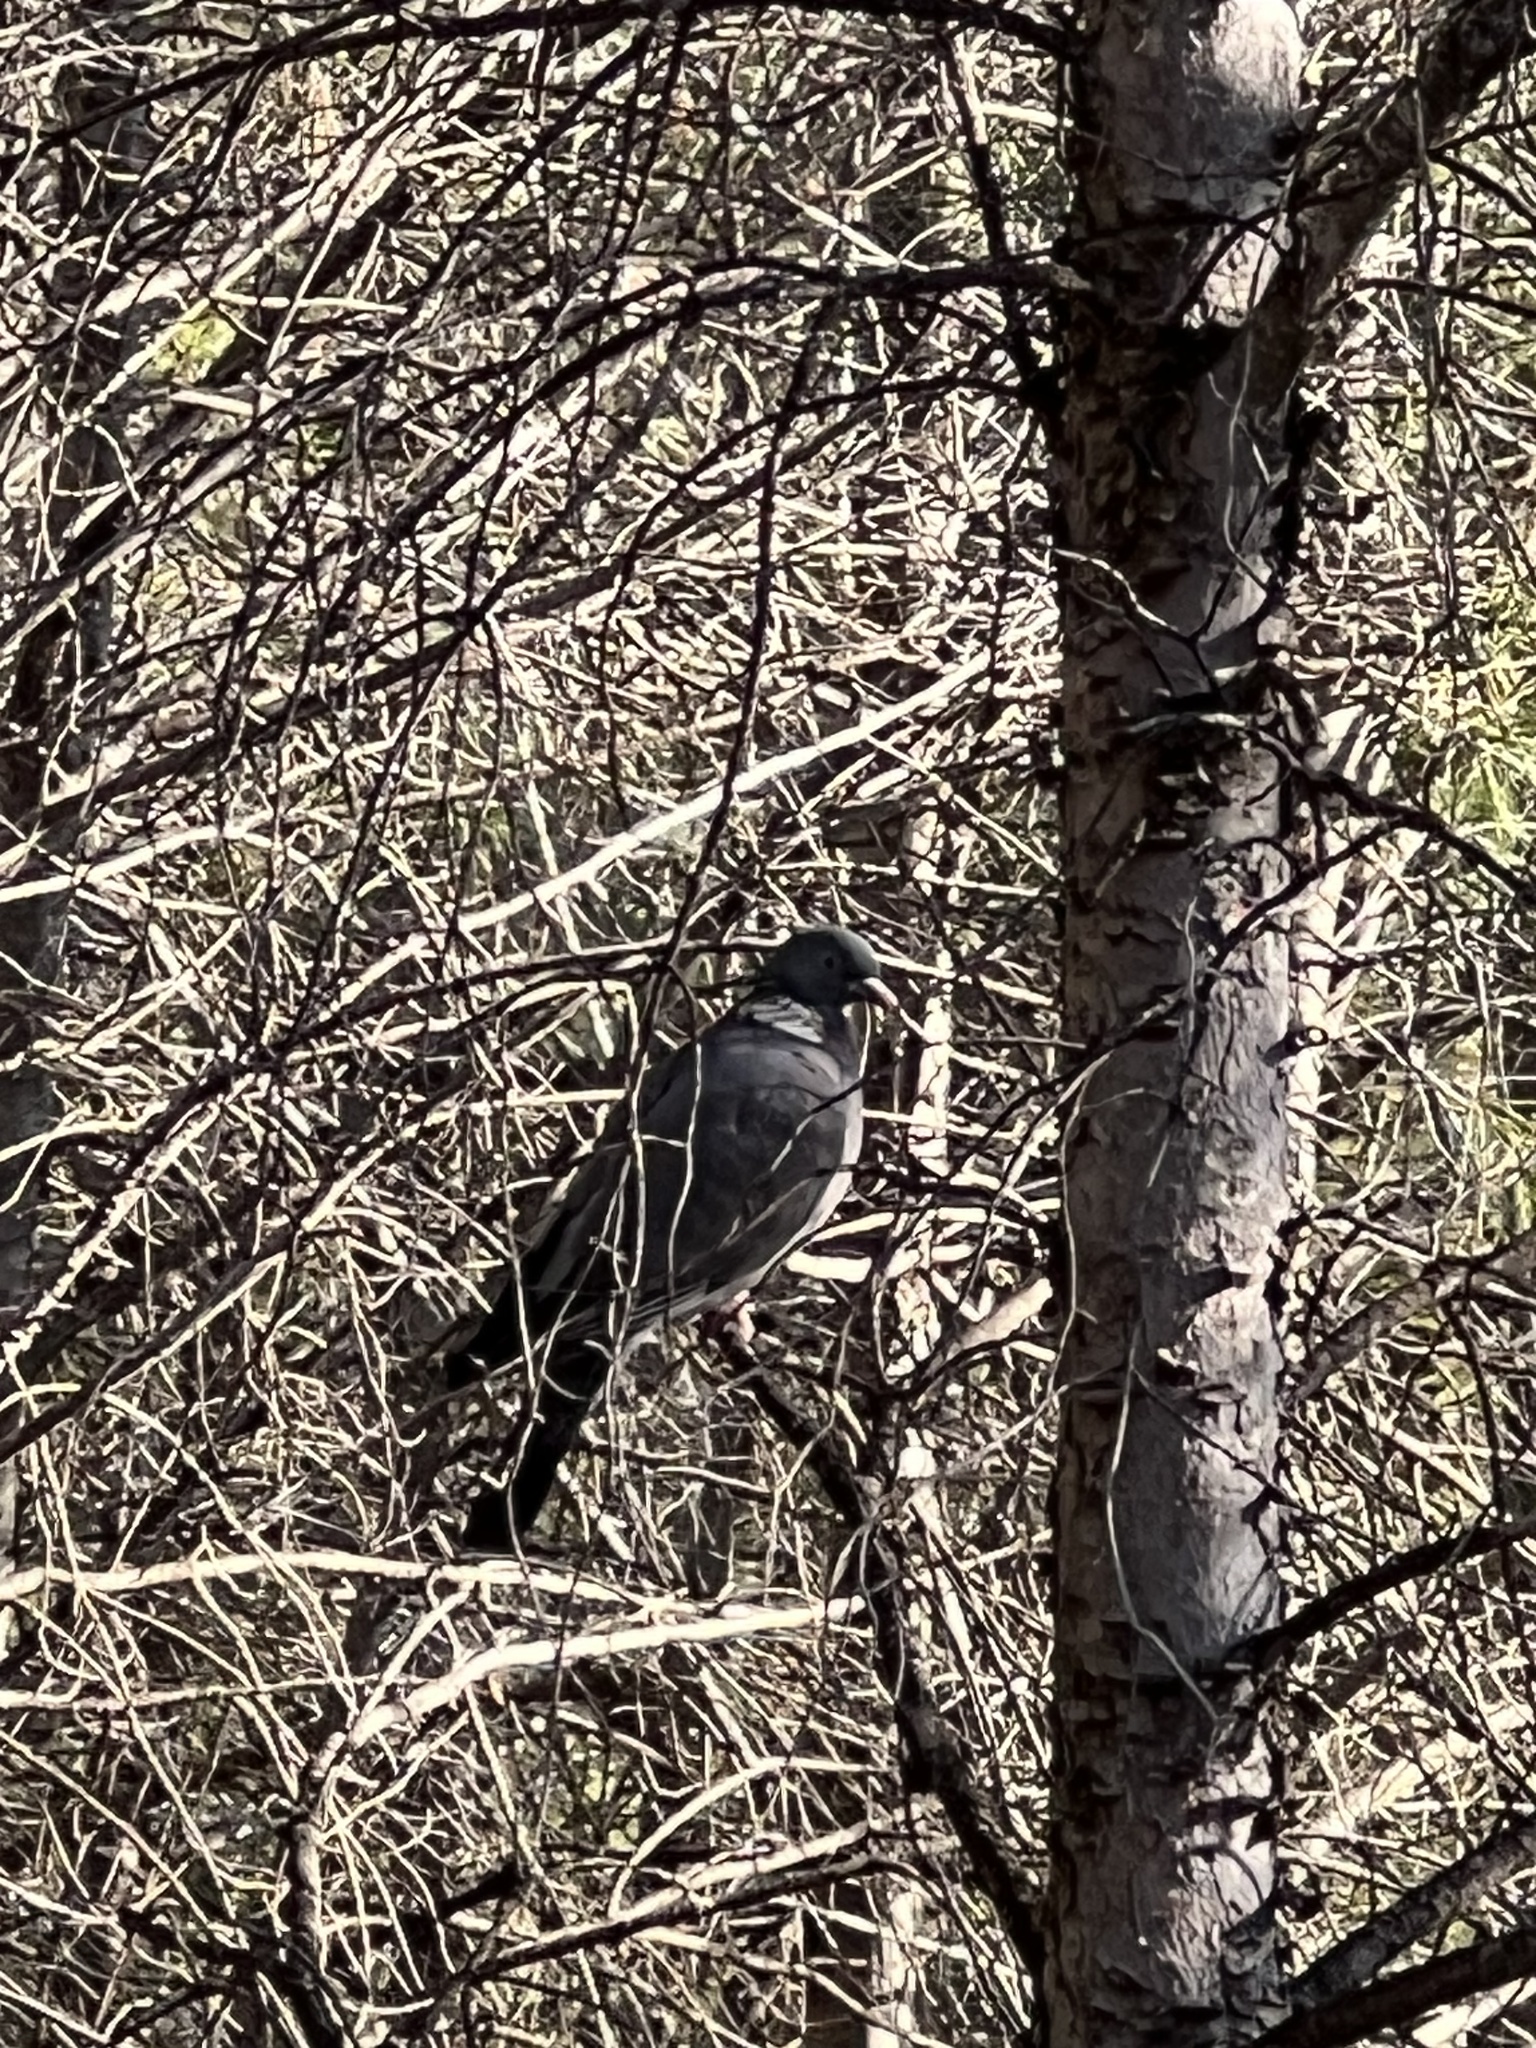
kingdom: Animalia
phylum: Chordata
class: Aves
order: Columbiformes
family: Columbidae
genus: Columba
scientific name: Columba palumbus
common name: Common wood pigeon
